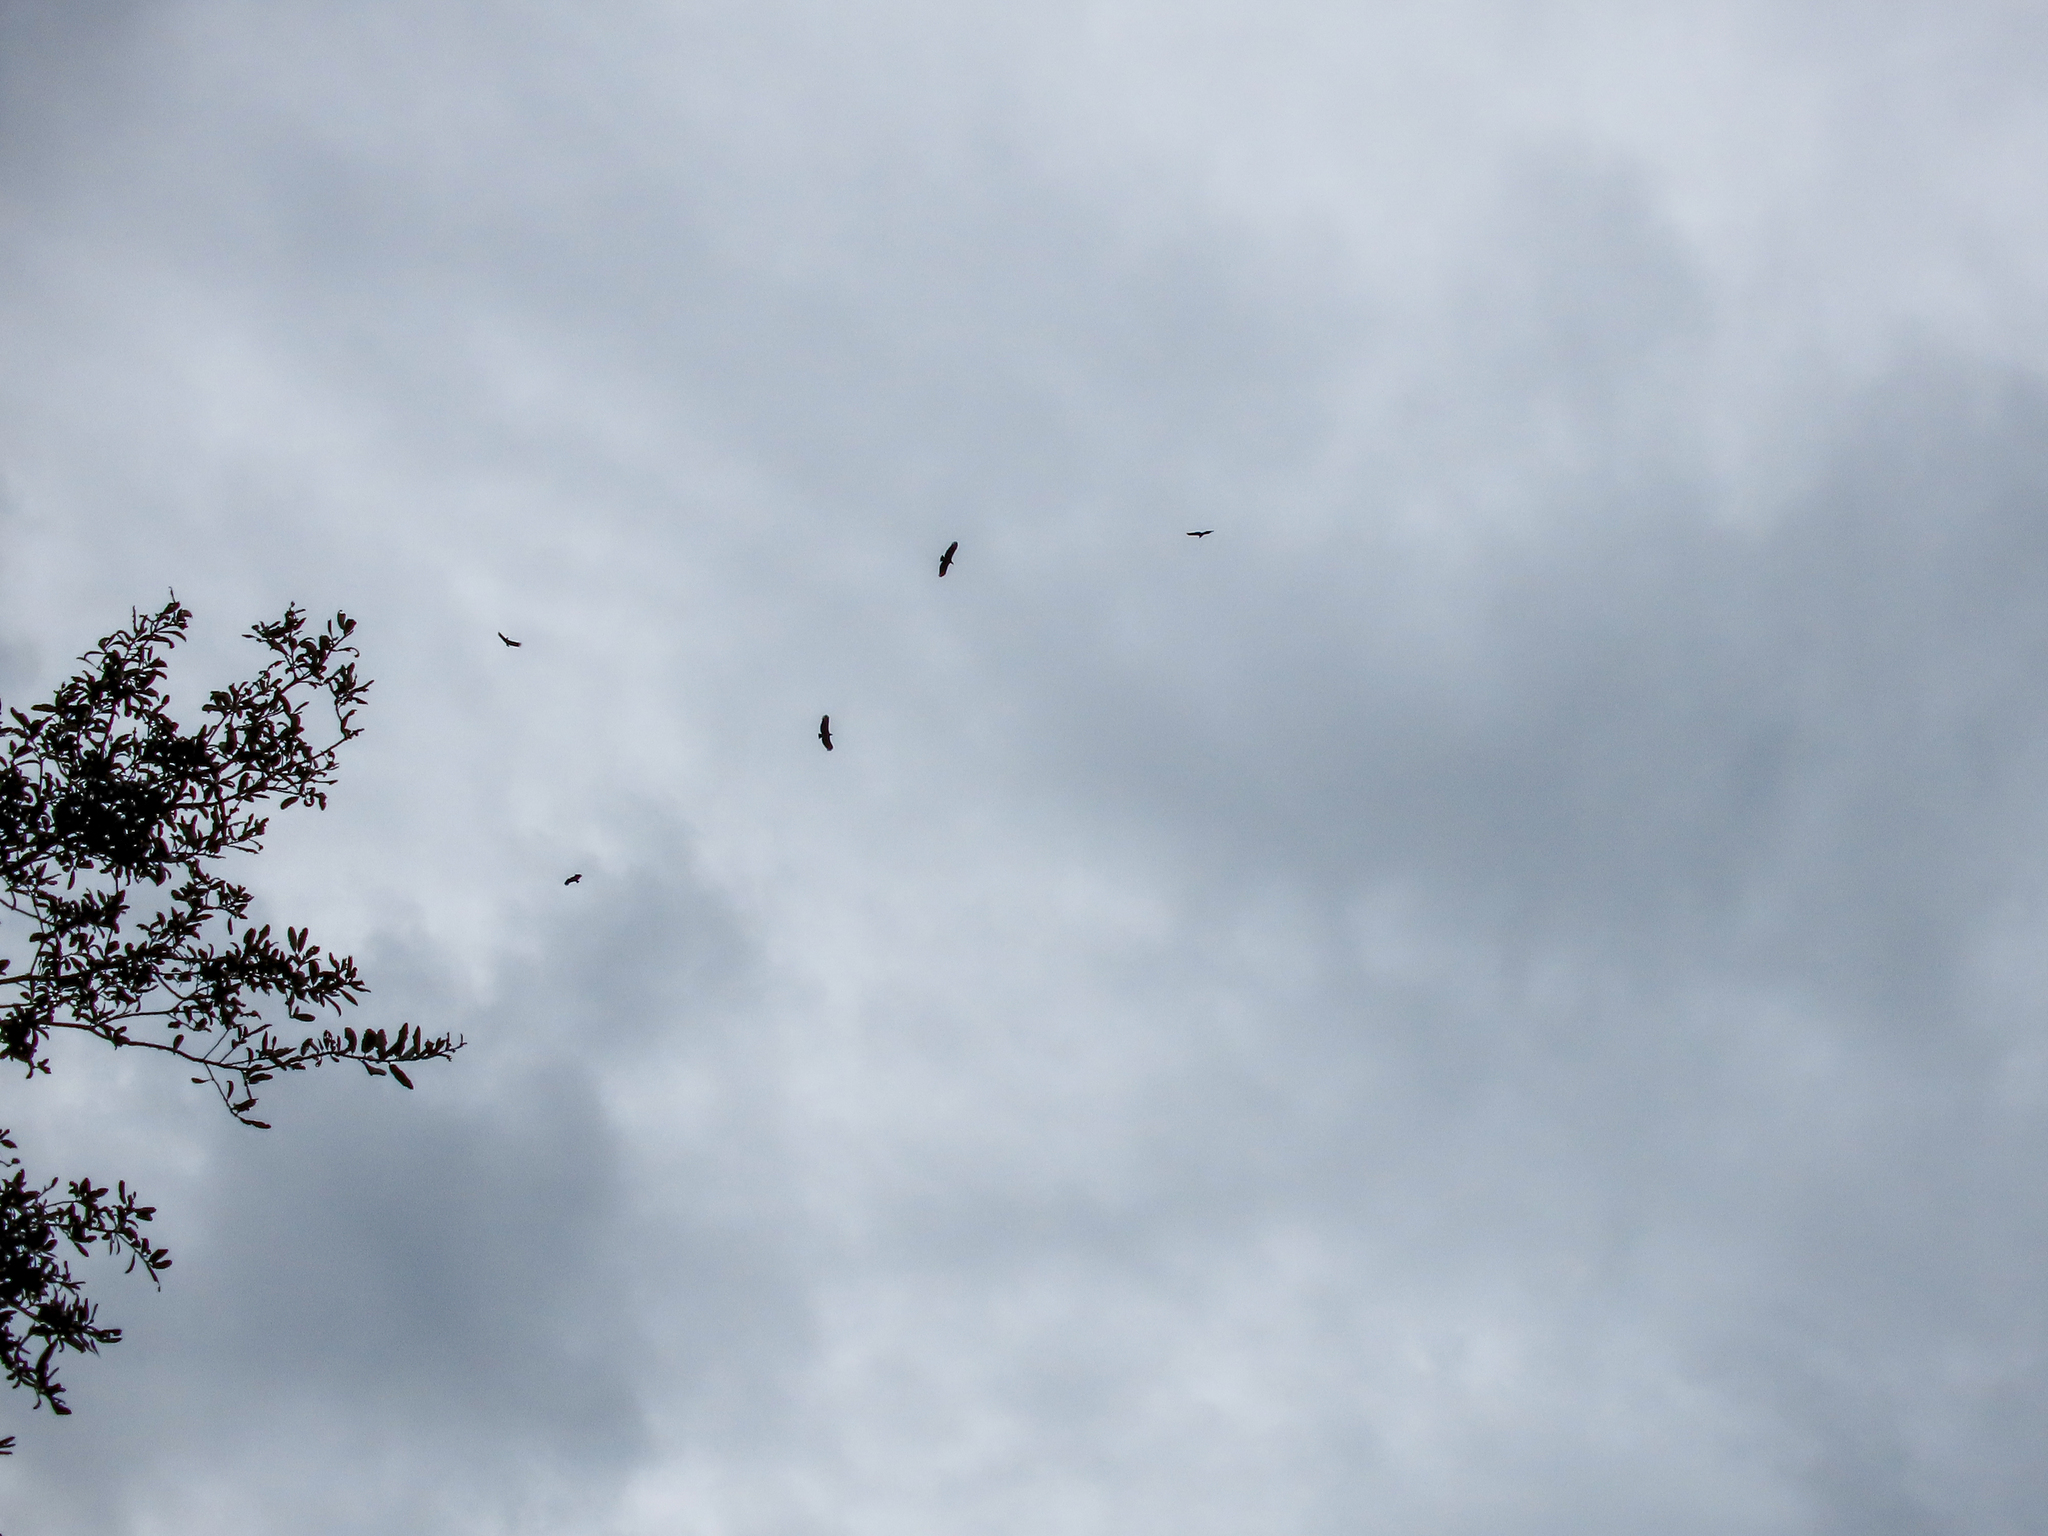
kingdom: Animalia
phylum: Chordata
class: Aves
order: Accipitriformes
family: Cathartidae
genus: Coragyps
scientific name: Coragyps atratus
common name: Black vulture
